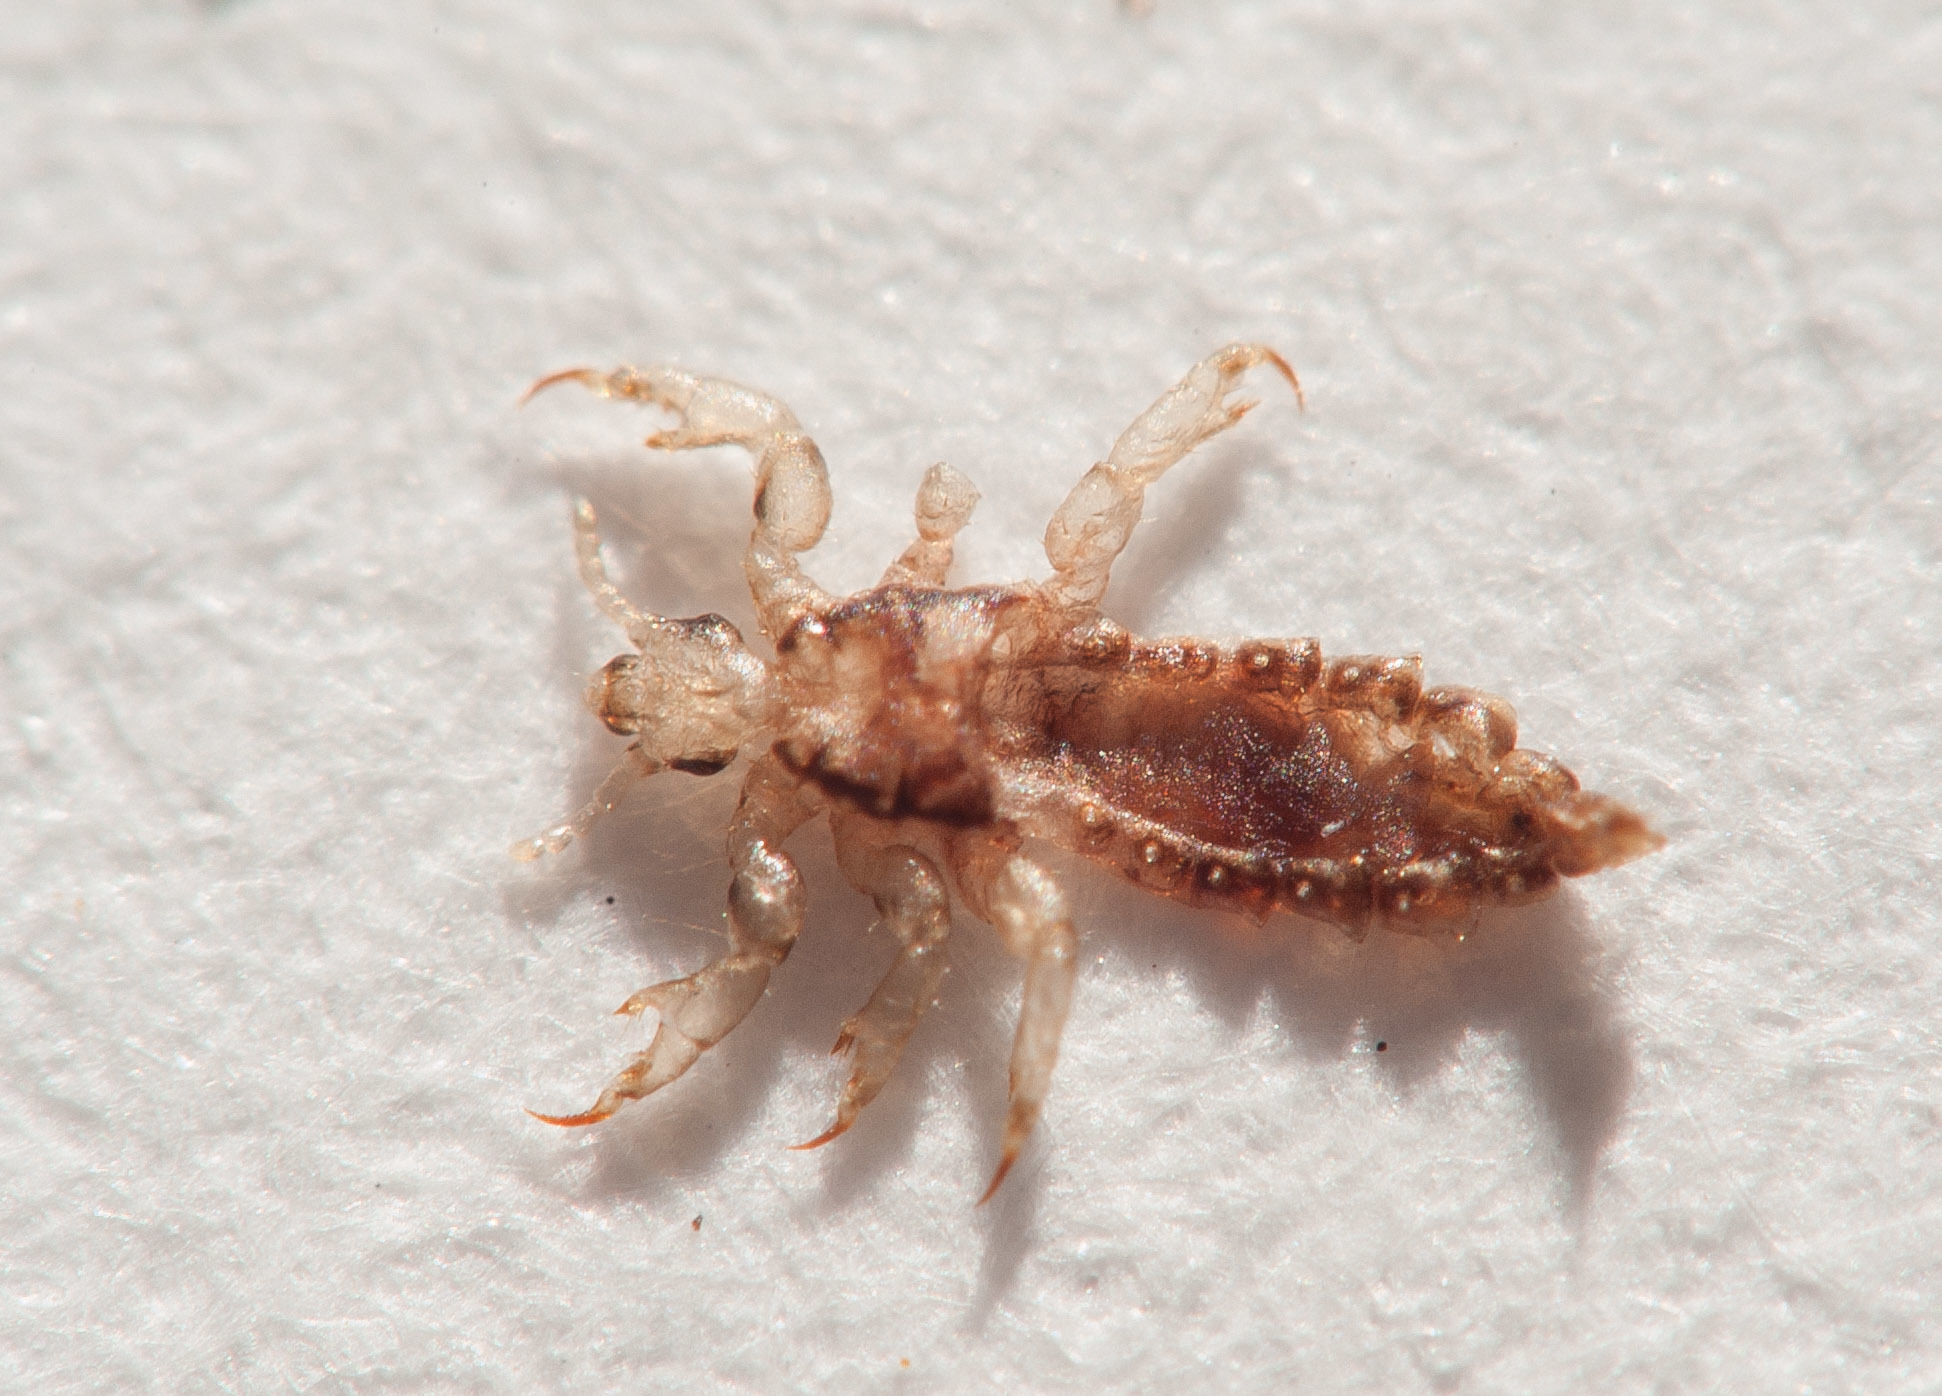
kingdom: Animalia
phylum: Arthropoda
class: Insecta
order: Psocodea
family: Pediculidae
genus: Pediculus
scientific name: Pediculus humanus
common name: Body louse
